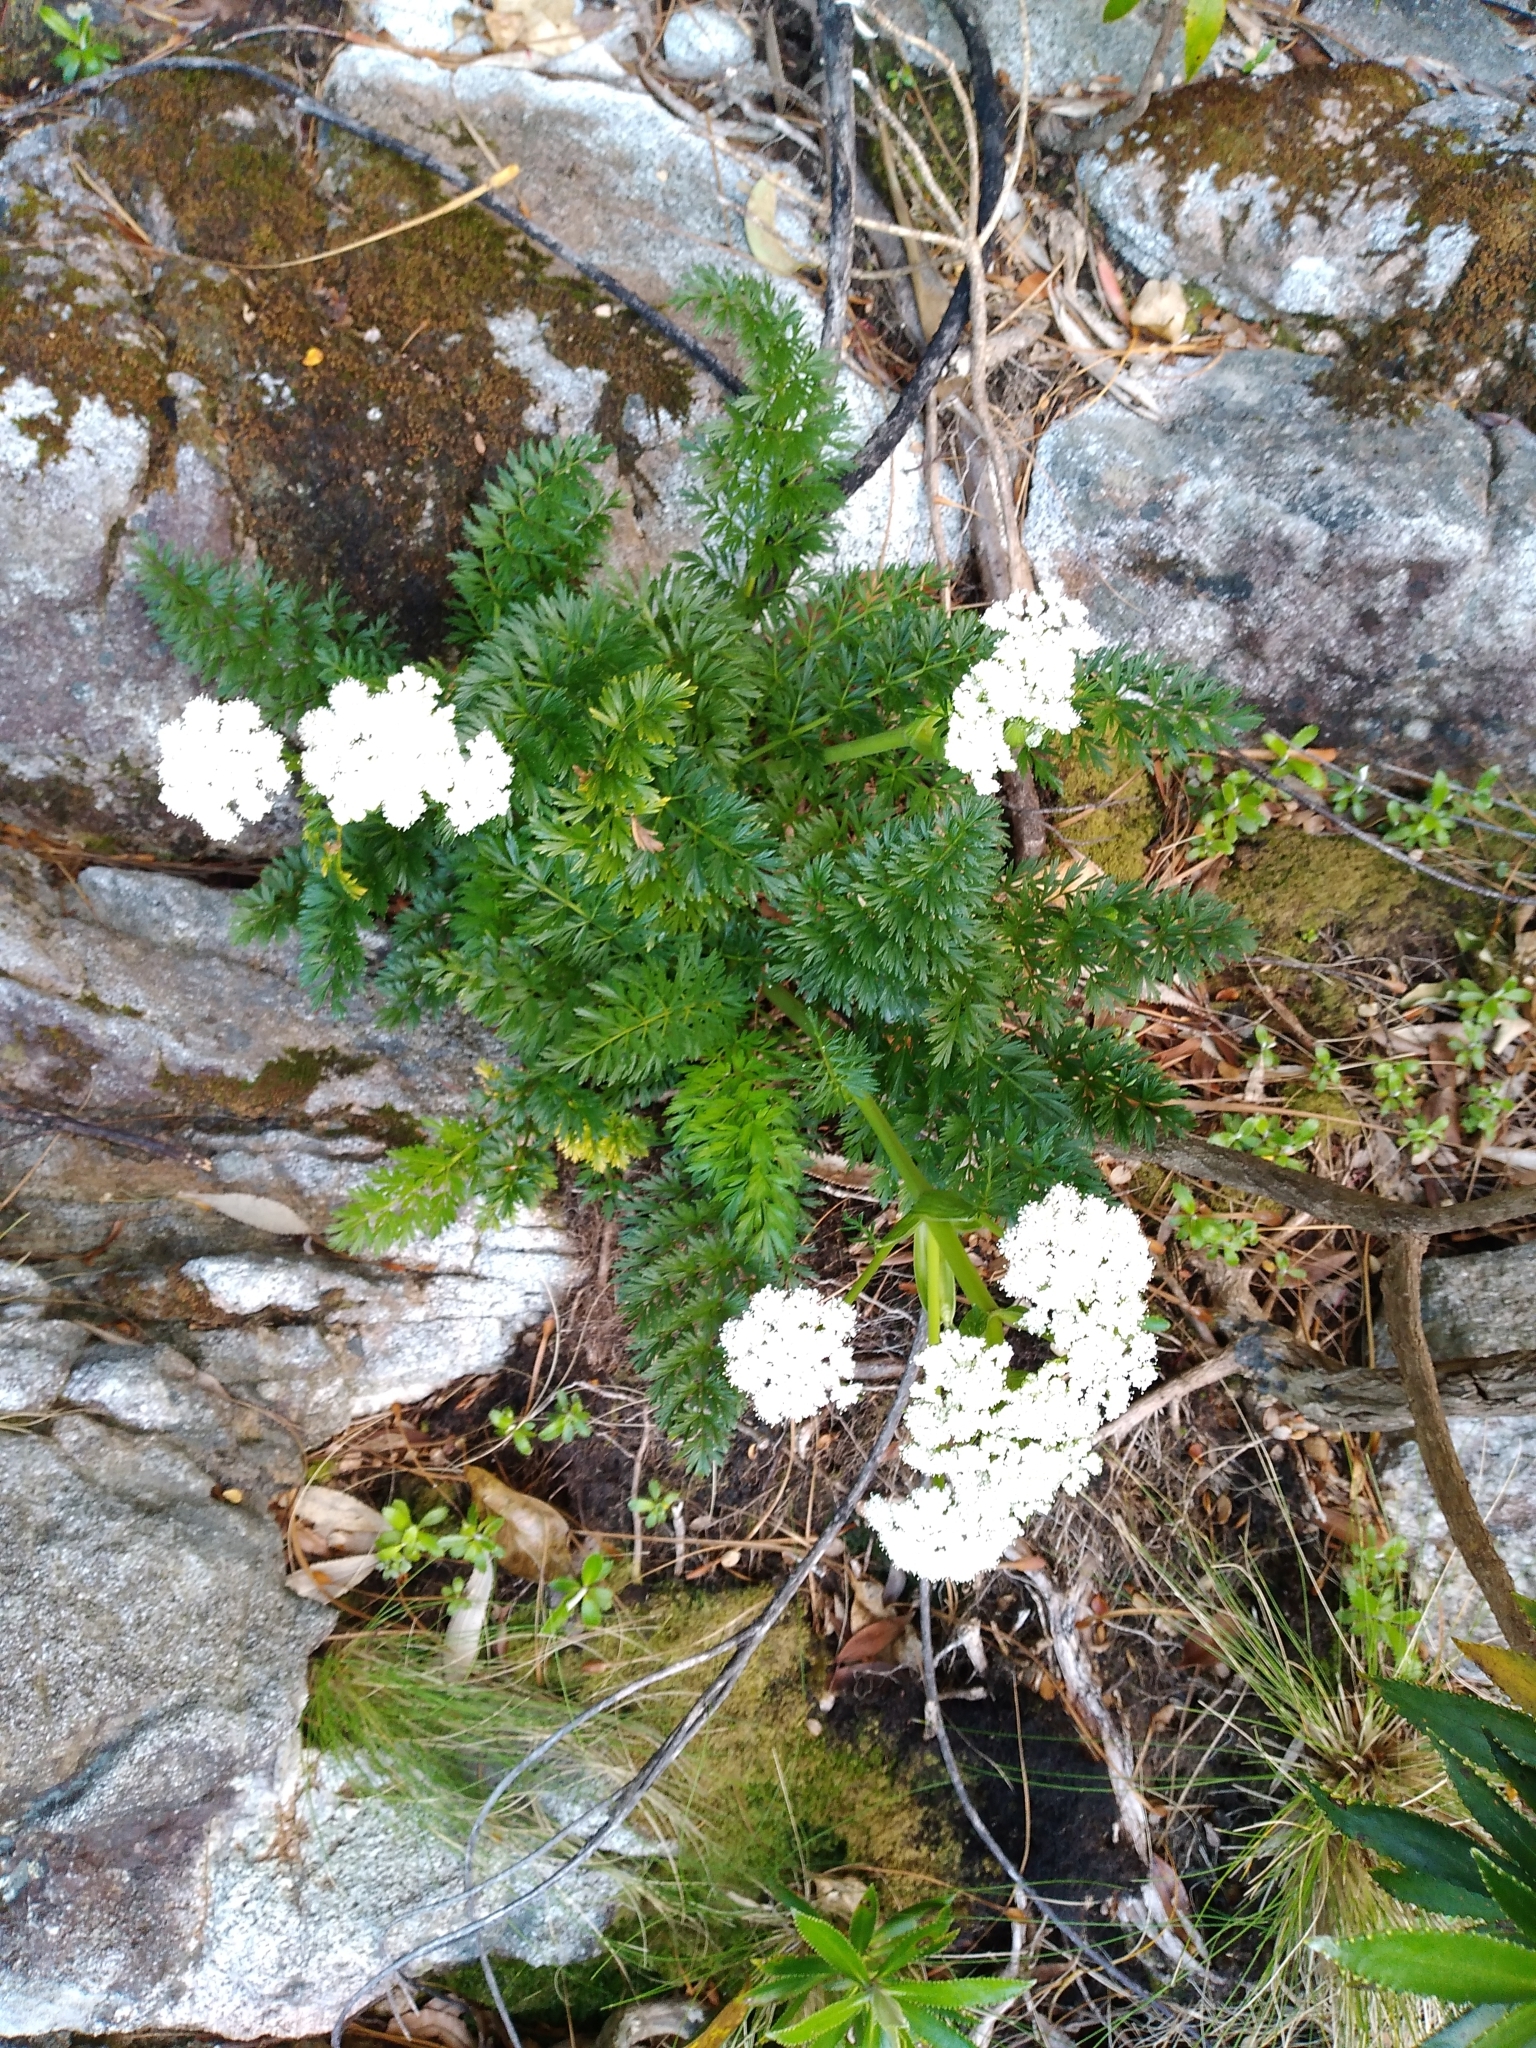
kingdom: Plantae
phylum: Tracheophyta
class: Magnoliopsida
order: Apiales
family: Apiaceae
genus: Anisotome
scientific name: Anisotome lyallii
